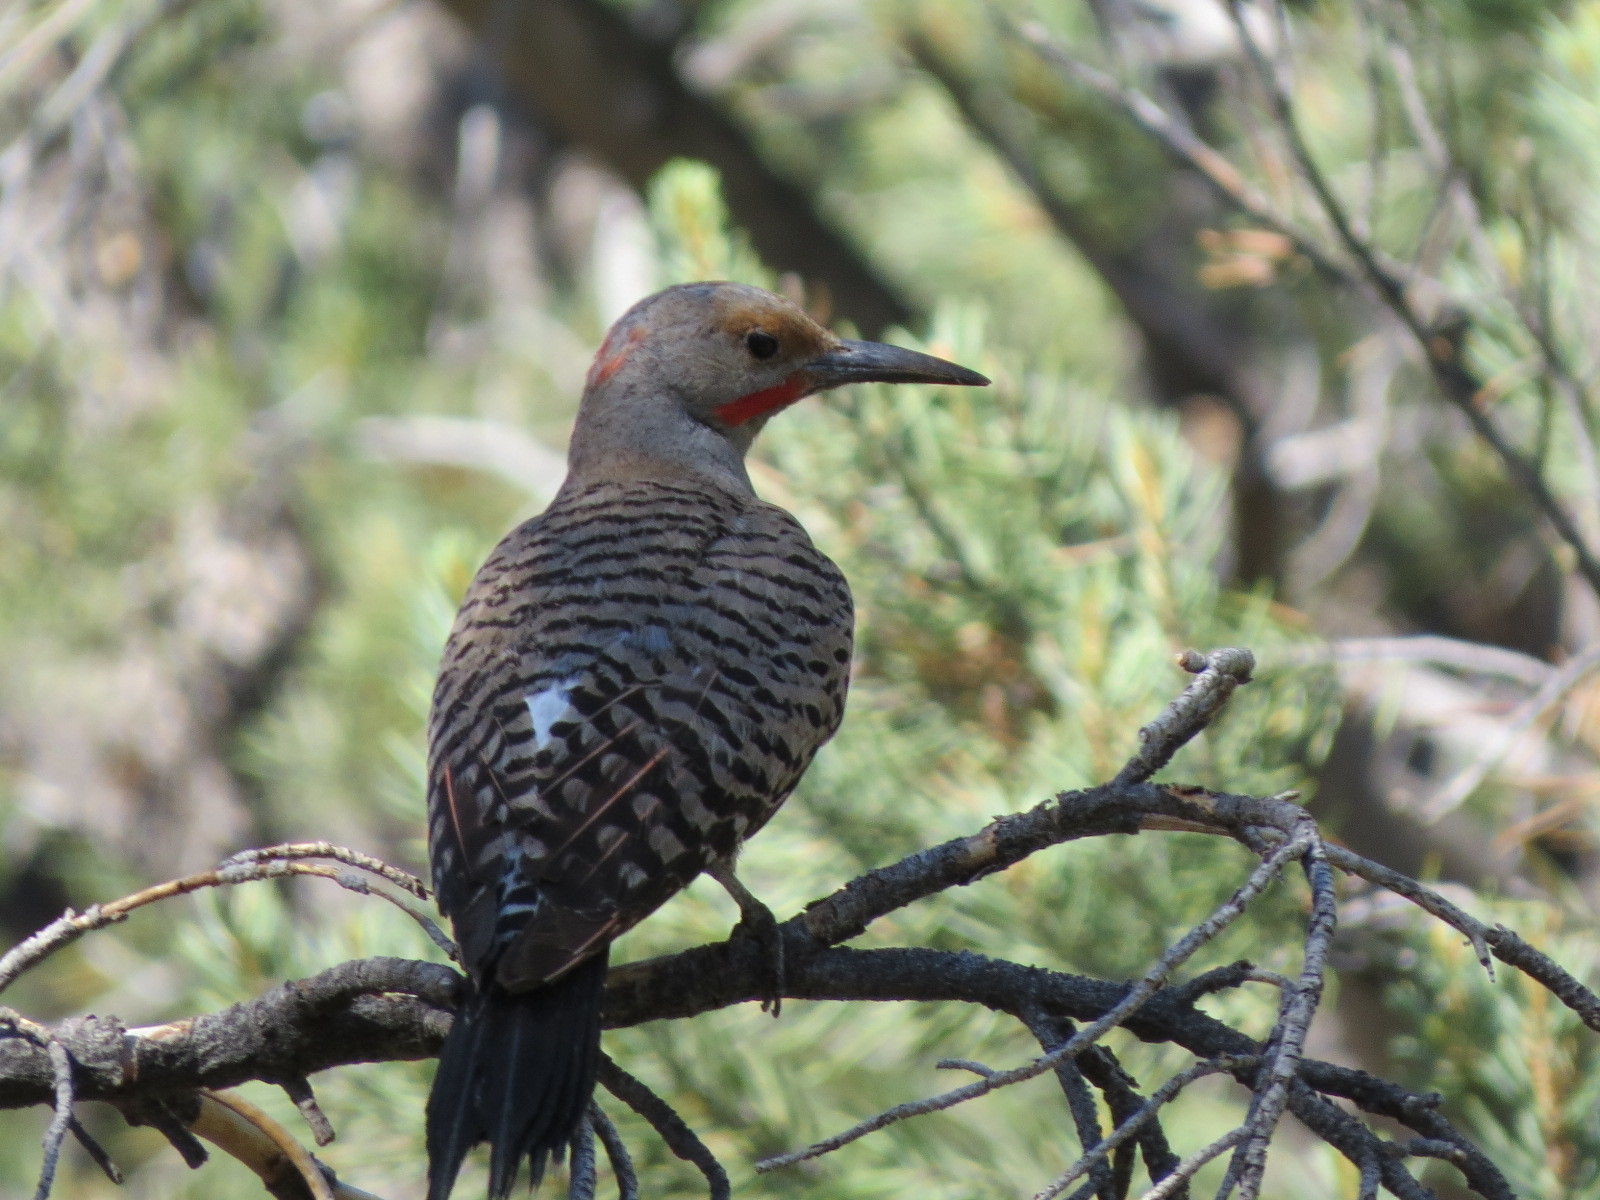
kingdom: Animalia
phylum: Chordata
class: Aves
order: Piciformes
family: Picidae
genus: Colaptes
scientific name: Colaptes
